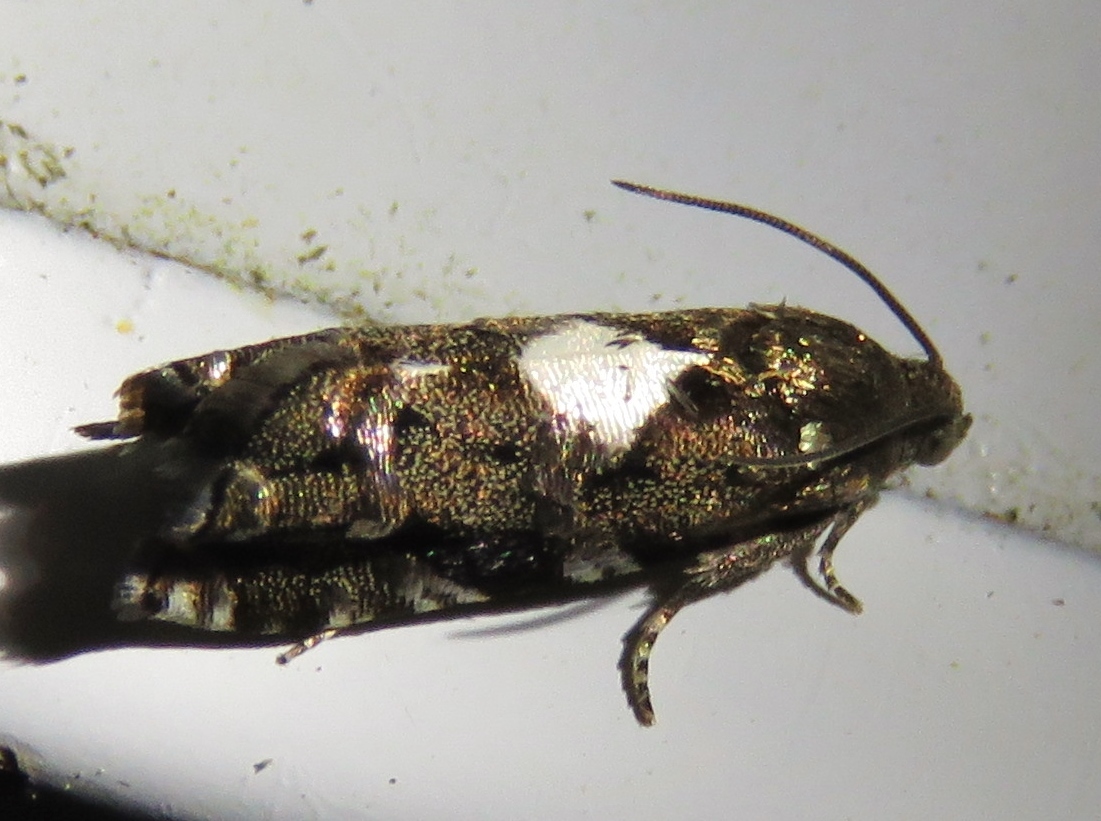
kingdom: Animalia
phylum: Arthropoda
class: Insecta
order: Lepidoptera
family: Tortricidae
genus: Cydia
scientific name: Cydia albimaculana
